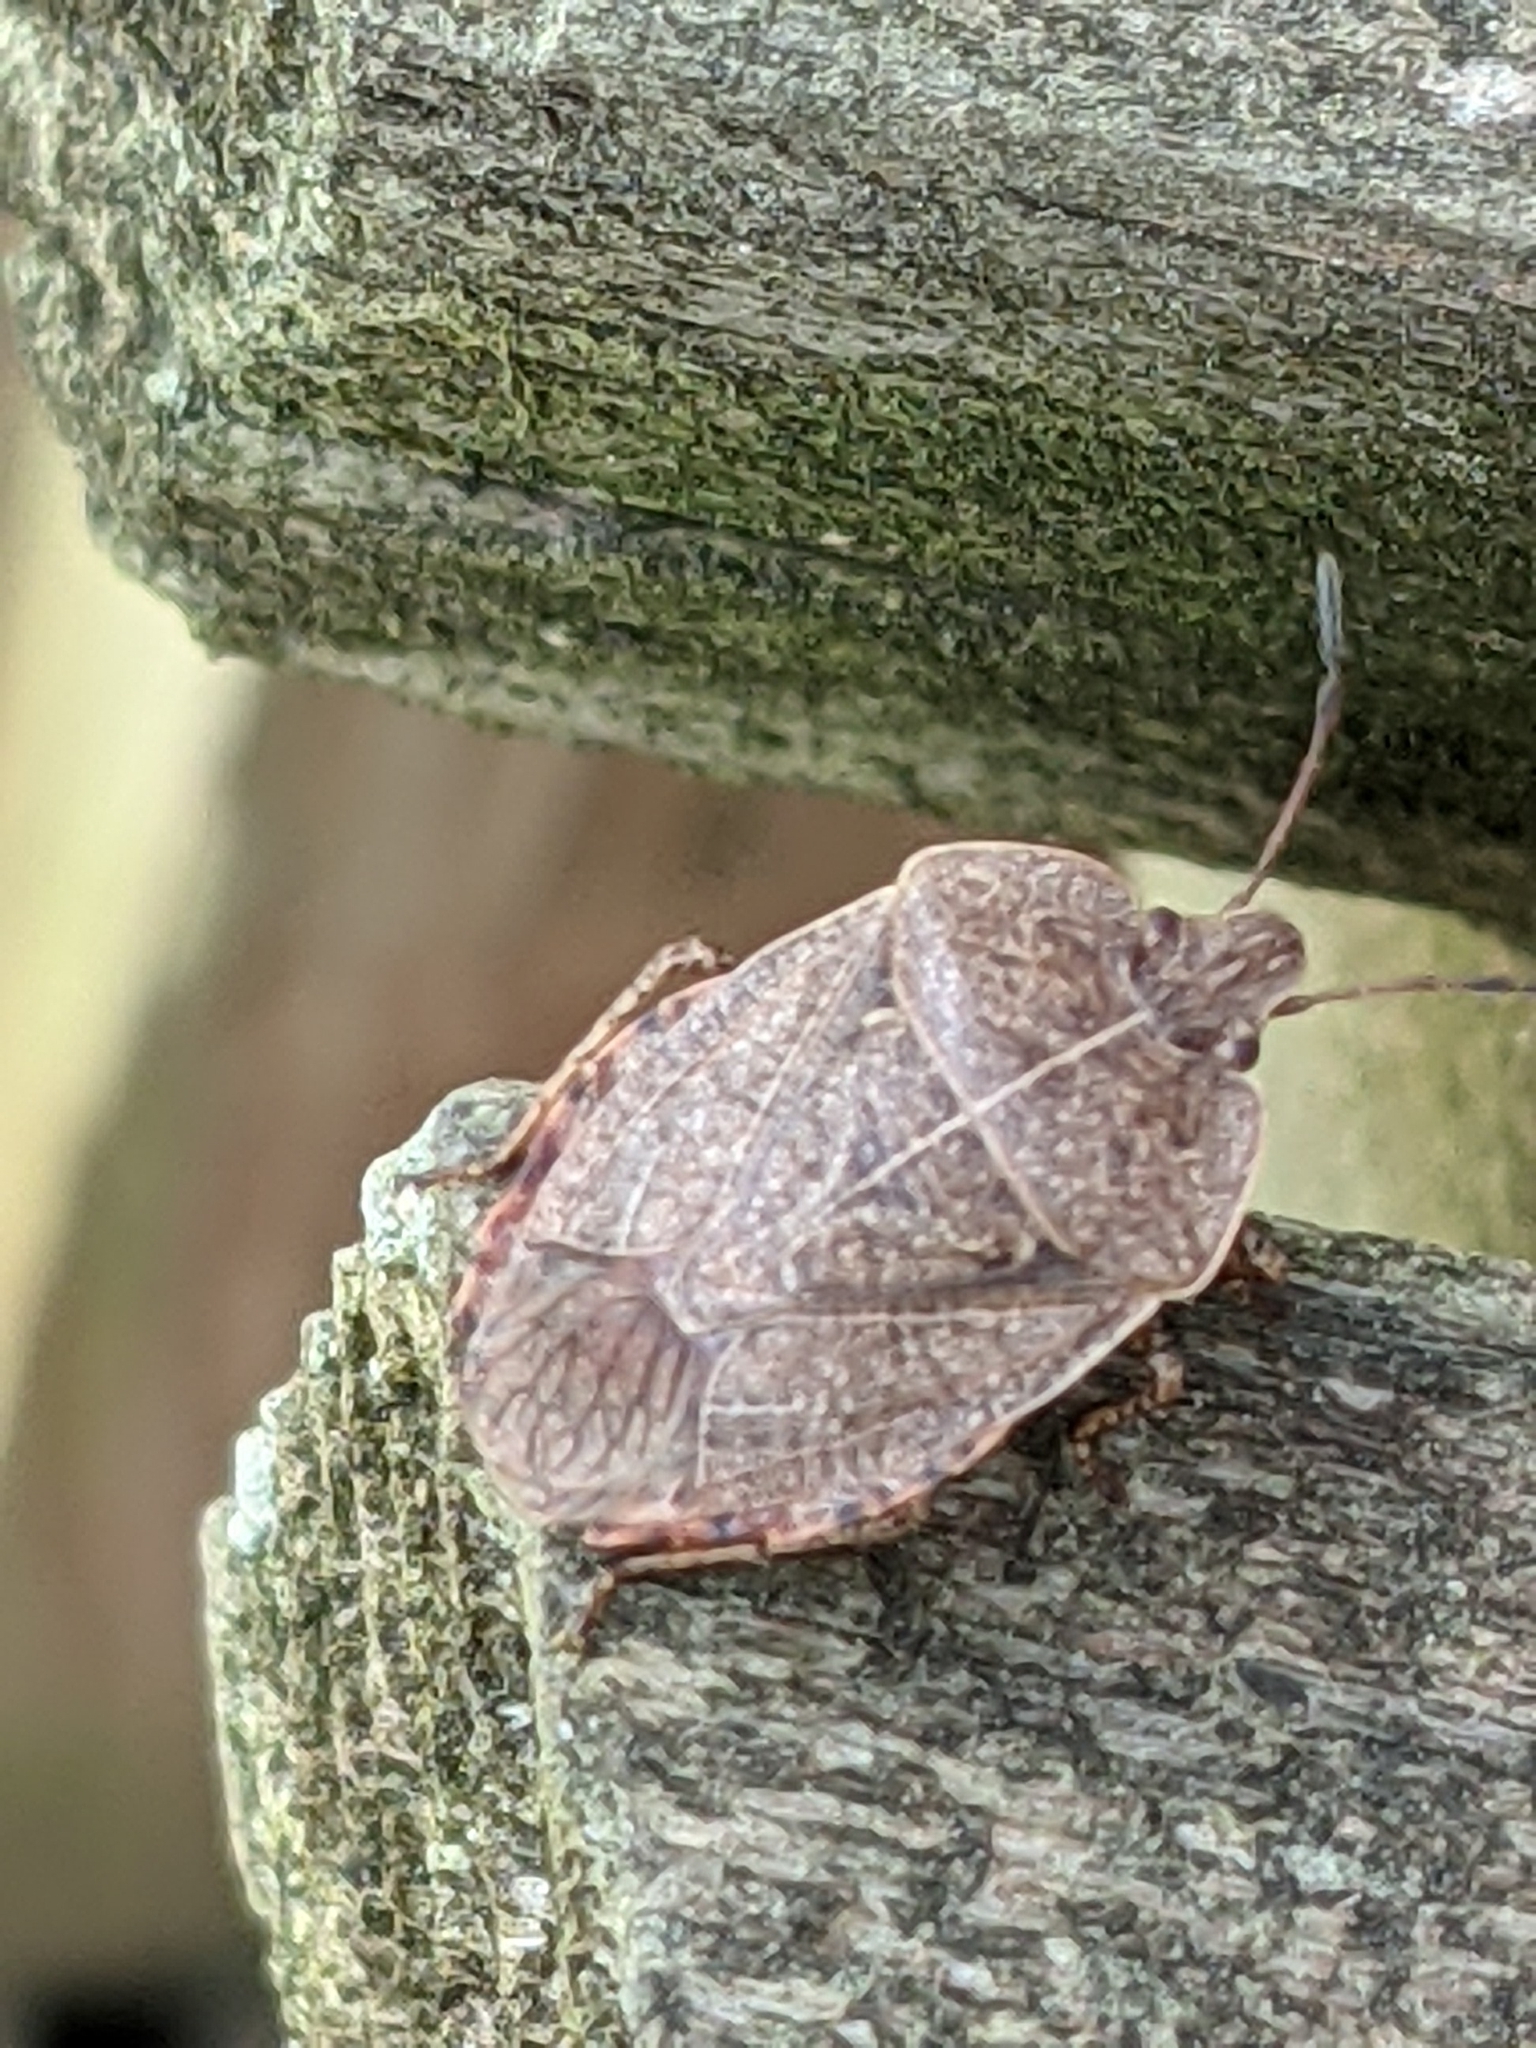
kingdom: Animalia
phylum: Arthropoda
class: Insecta
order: Hemiptera
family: Pentatomidae
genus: Menecles
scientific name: Menecles insertus
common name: Elf shoe stink bug
